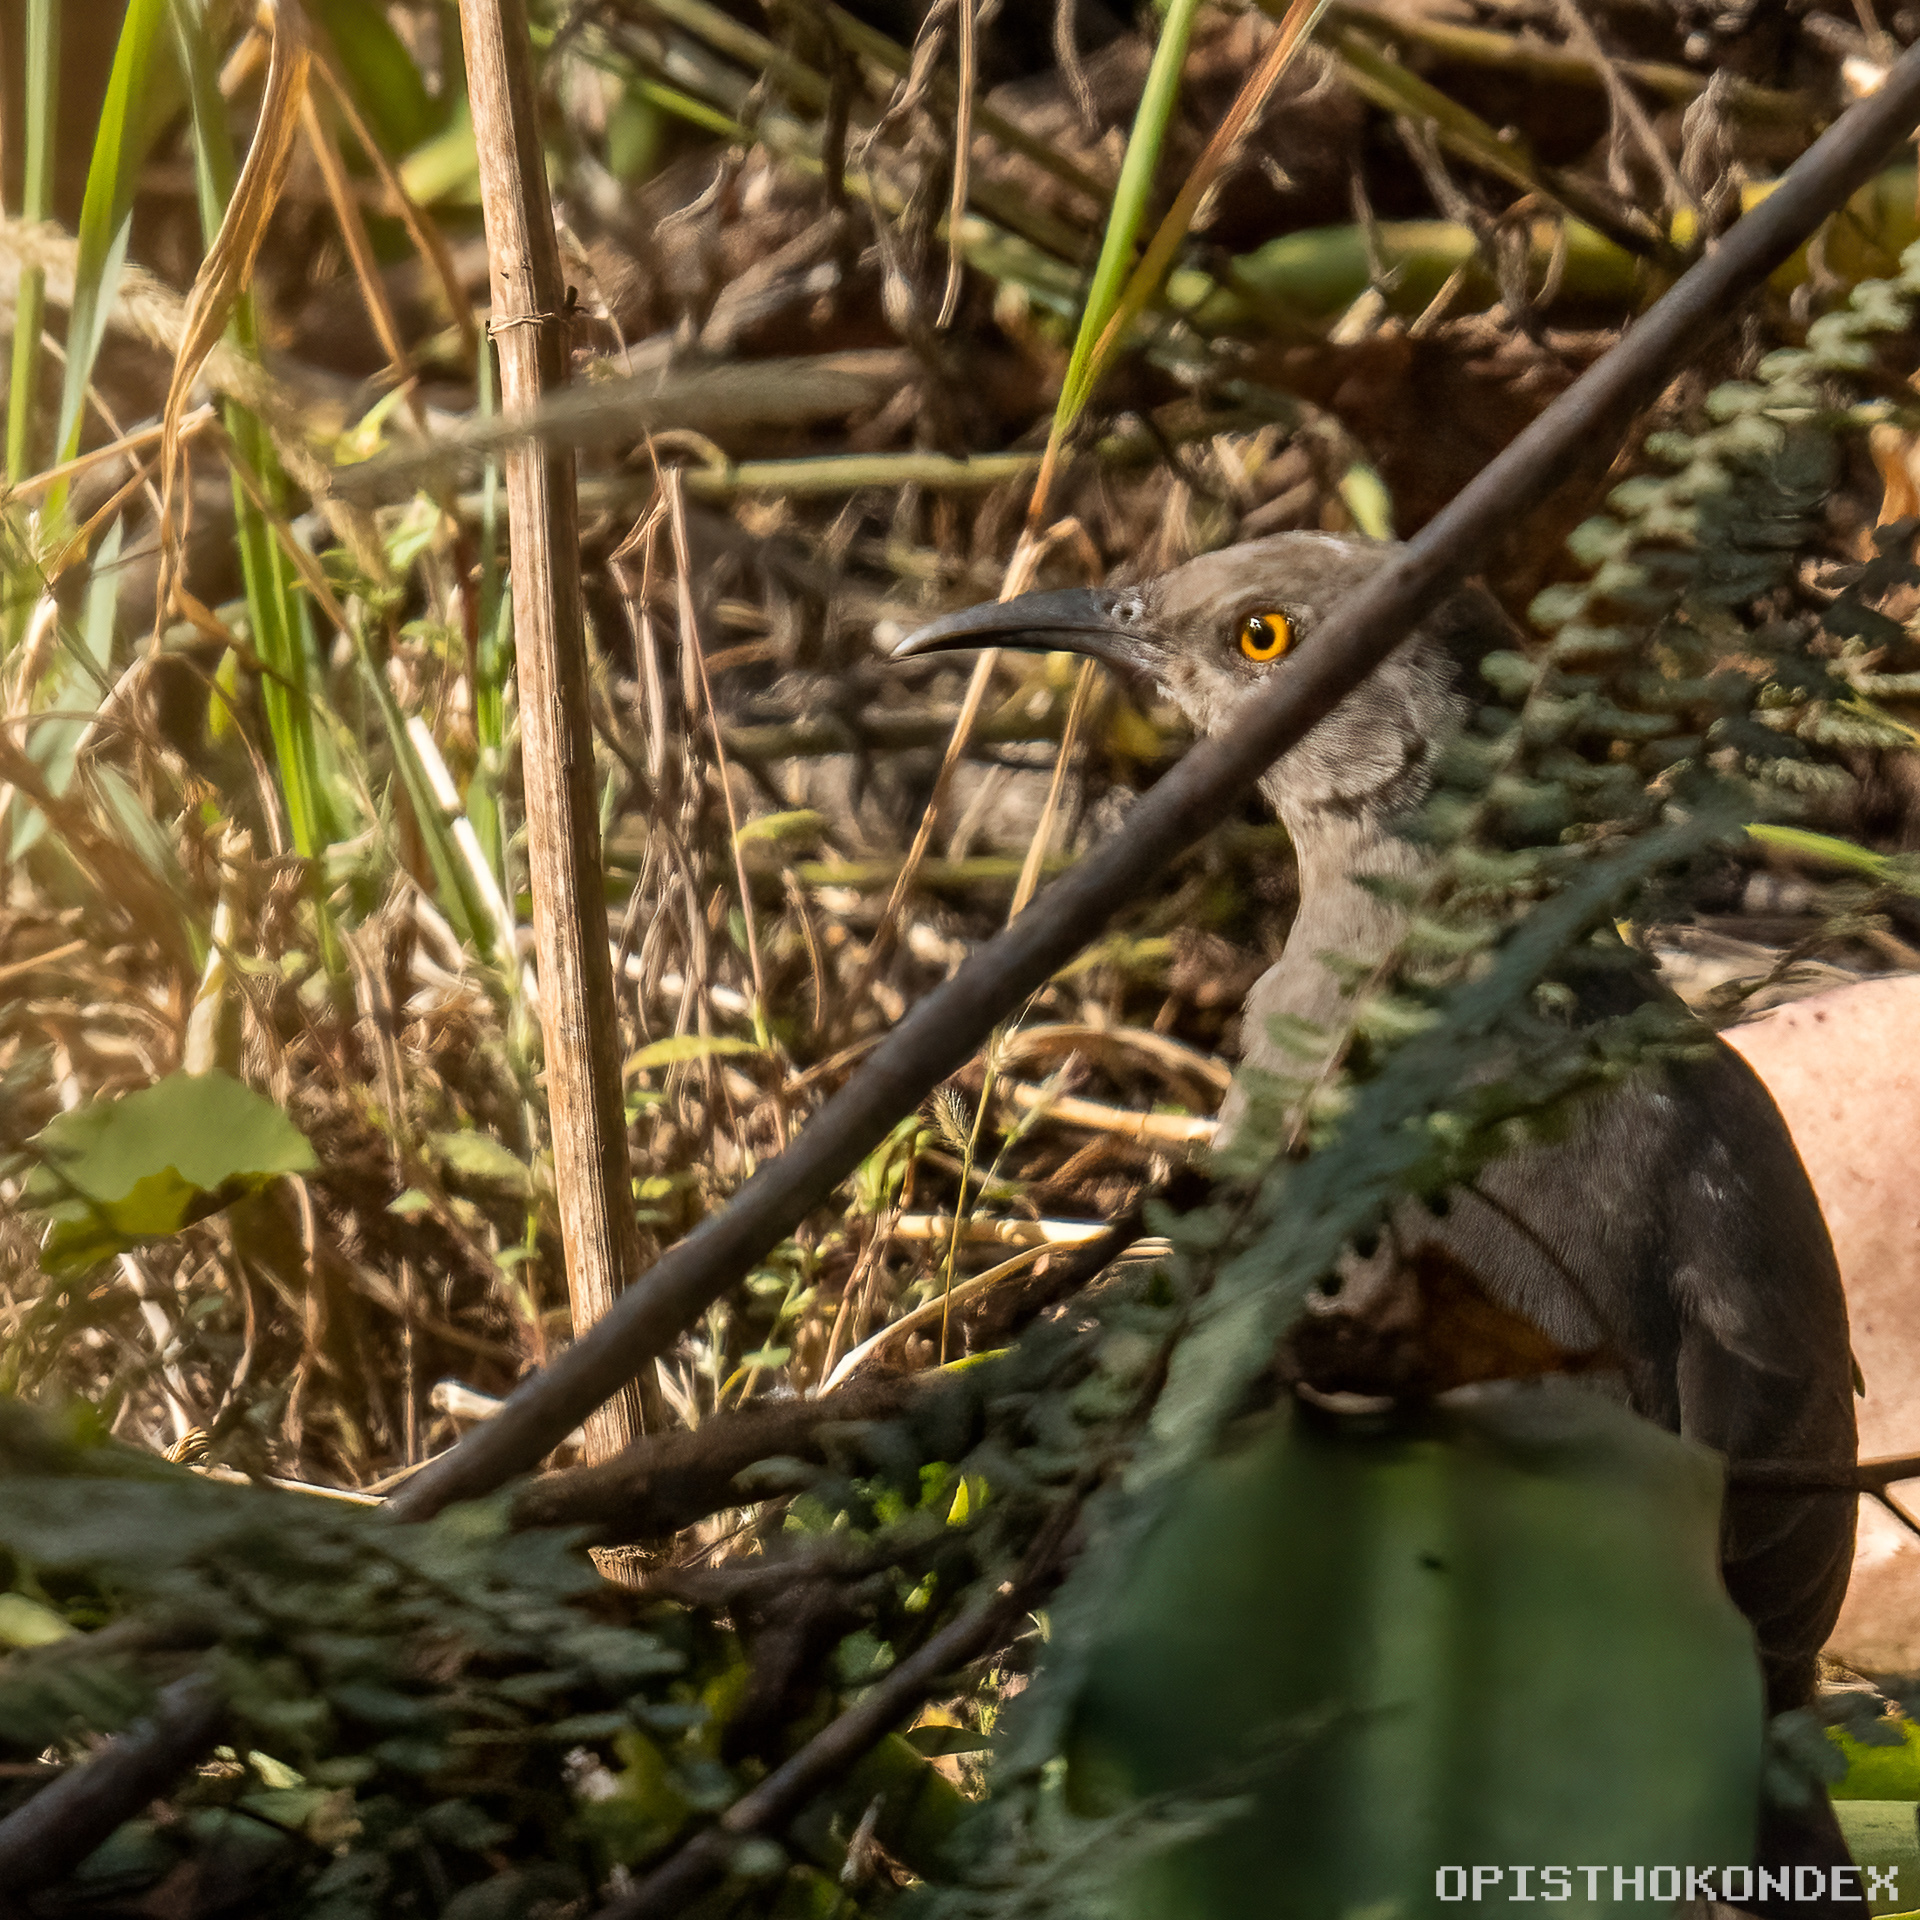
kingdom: Animalia
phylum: Chordata
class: Aves
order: Passeriformes
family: Mimidae
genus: Toxostoma
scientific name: Toxostoma curvirostre
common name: Curve-billed thrasher
